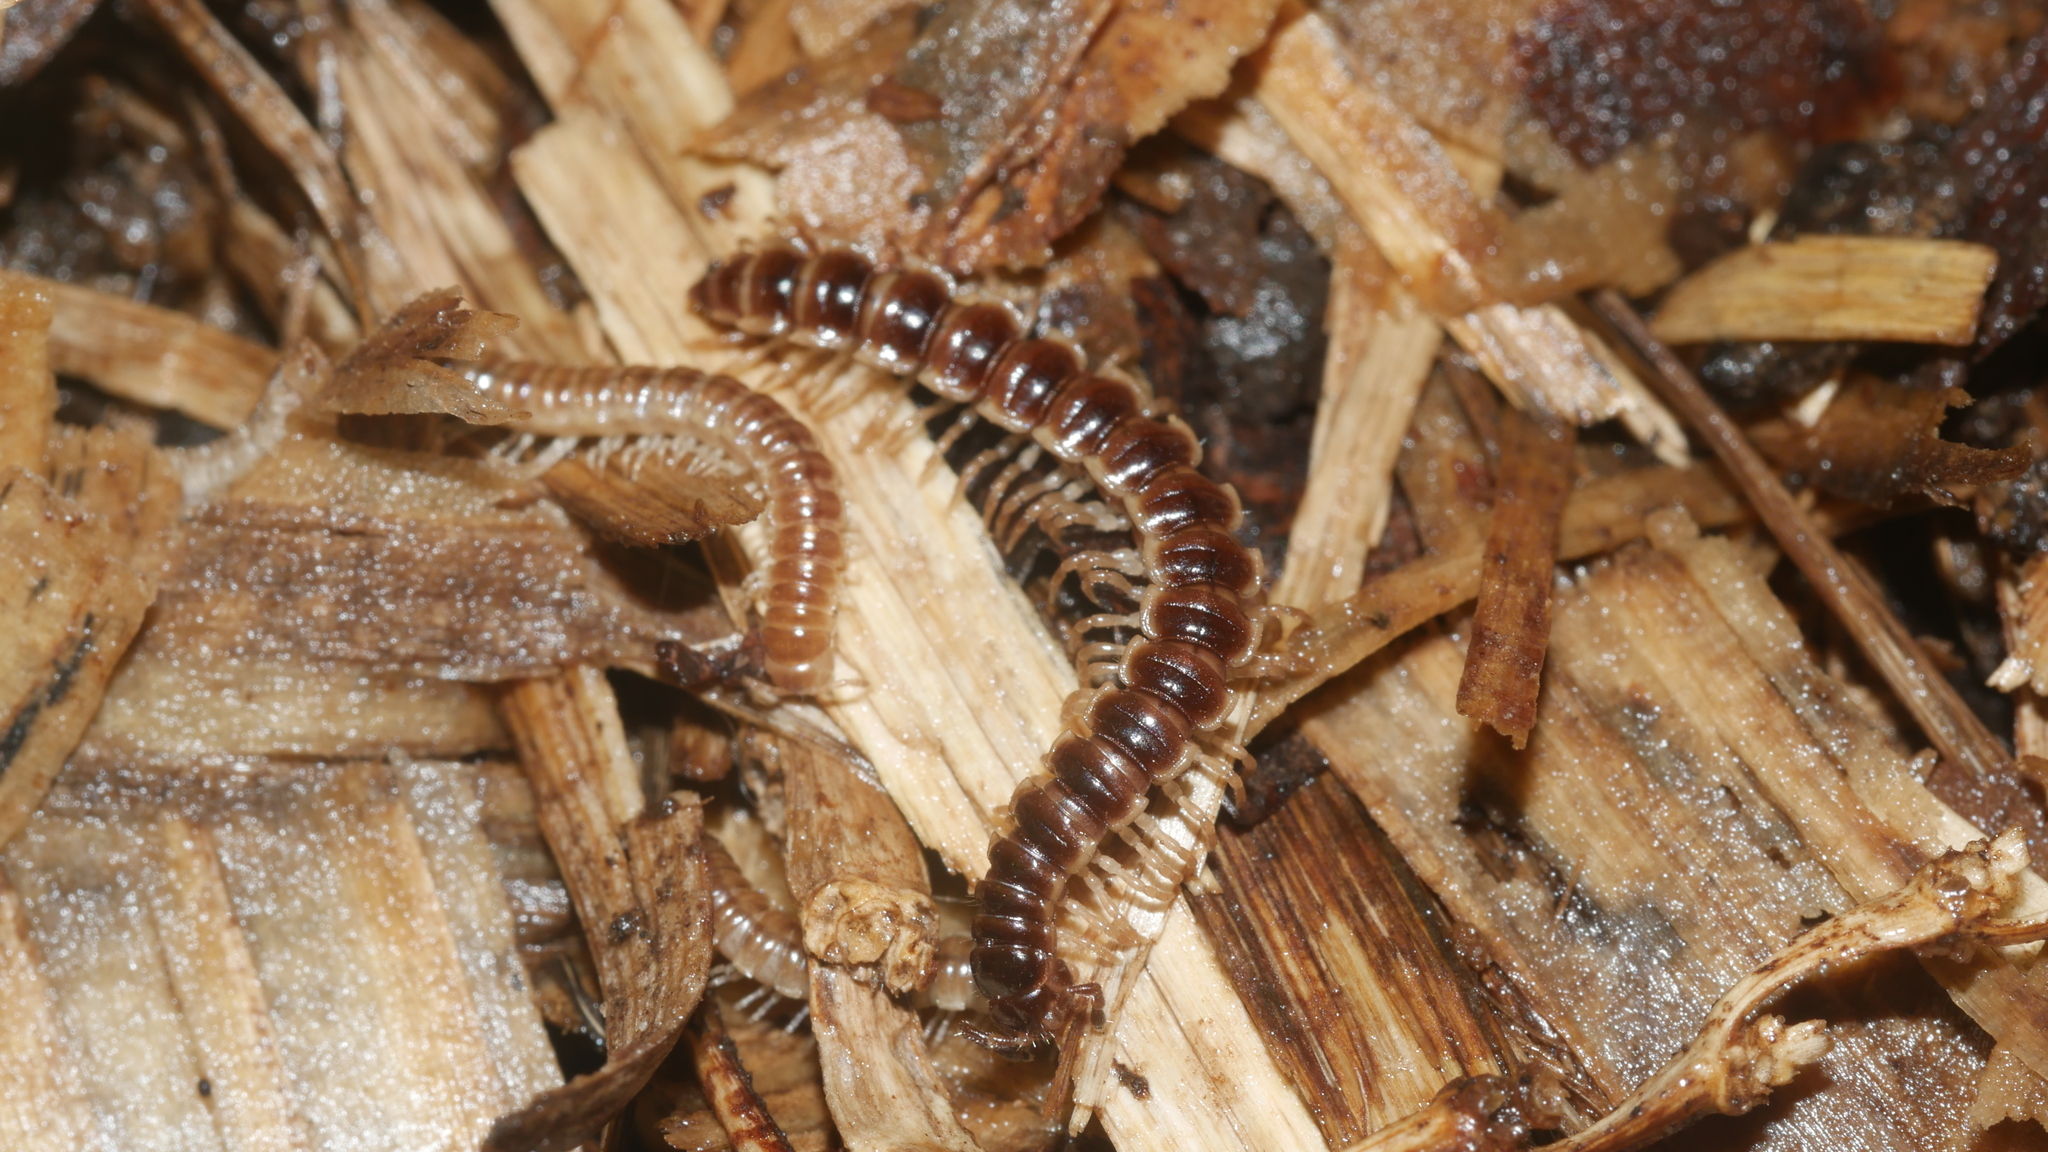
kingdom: Animalia
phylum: Arthropoda
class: Diplopoda
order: Polydesmida
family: Paradoxosomatidae
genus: Oxidus
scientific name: Oxidus gracilis
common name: Greenhouse millipede
